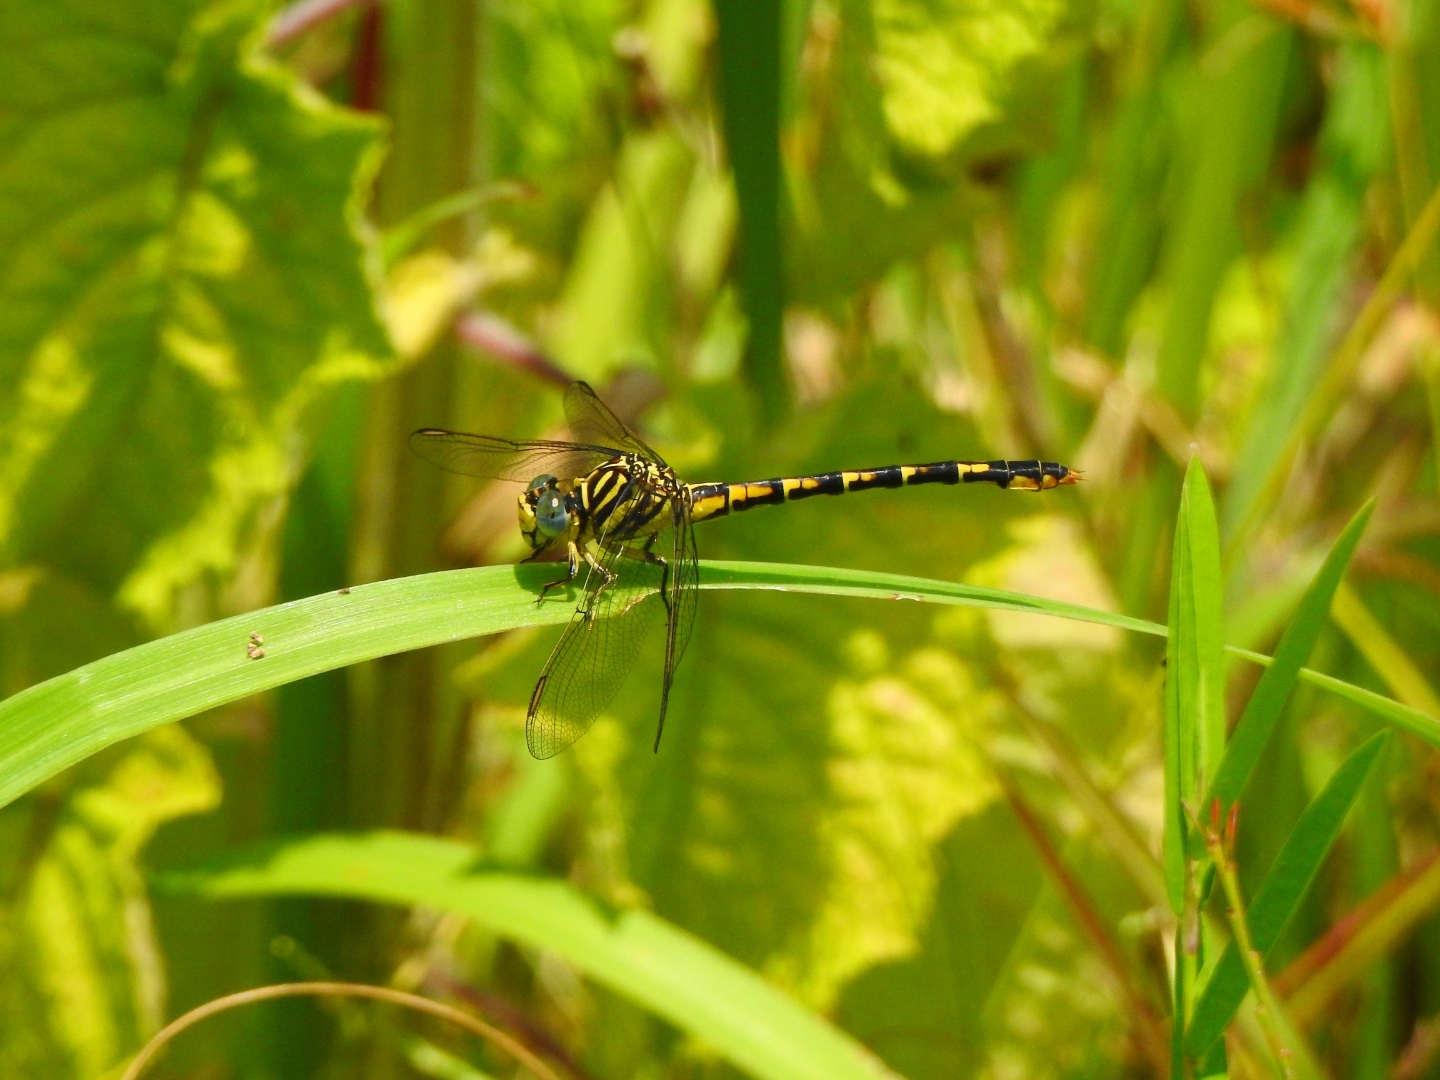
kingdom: Animalia
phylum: Arthropoda
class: Insecta
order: Odonata
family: Gomphidae
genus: Paragomphus
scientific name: Paragomphus lineatus
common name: Lined hooktail
